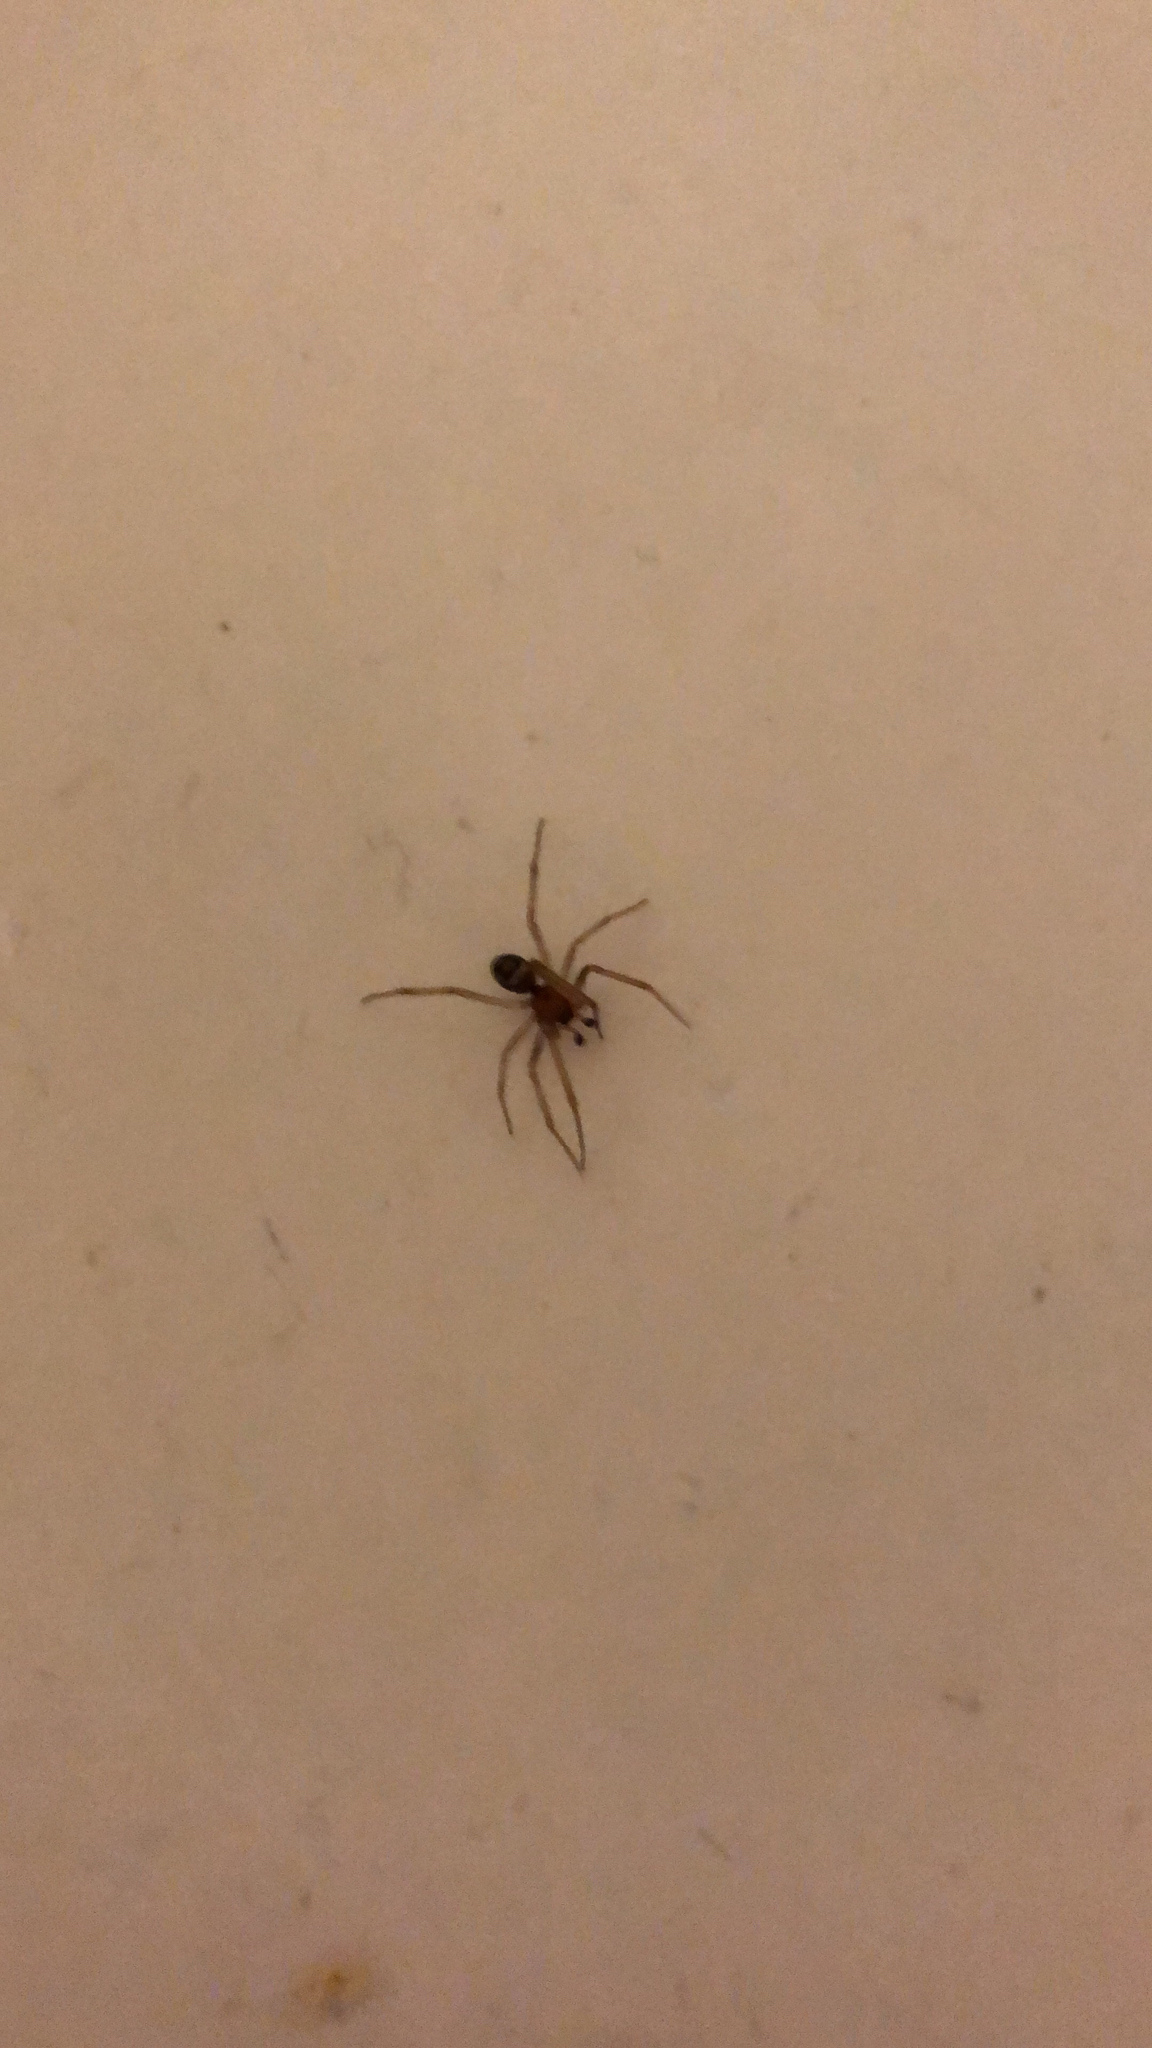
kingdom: Animalia
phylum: Arthropoda
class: Arachnida
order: Araneae
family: Theridiidae
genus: Steatoda
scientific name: Steatoda grossa
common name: False black widow
